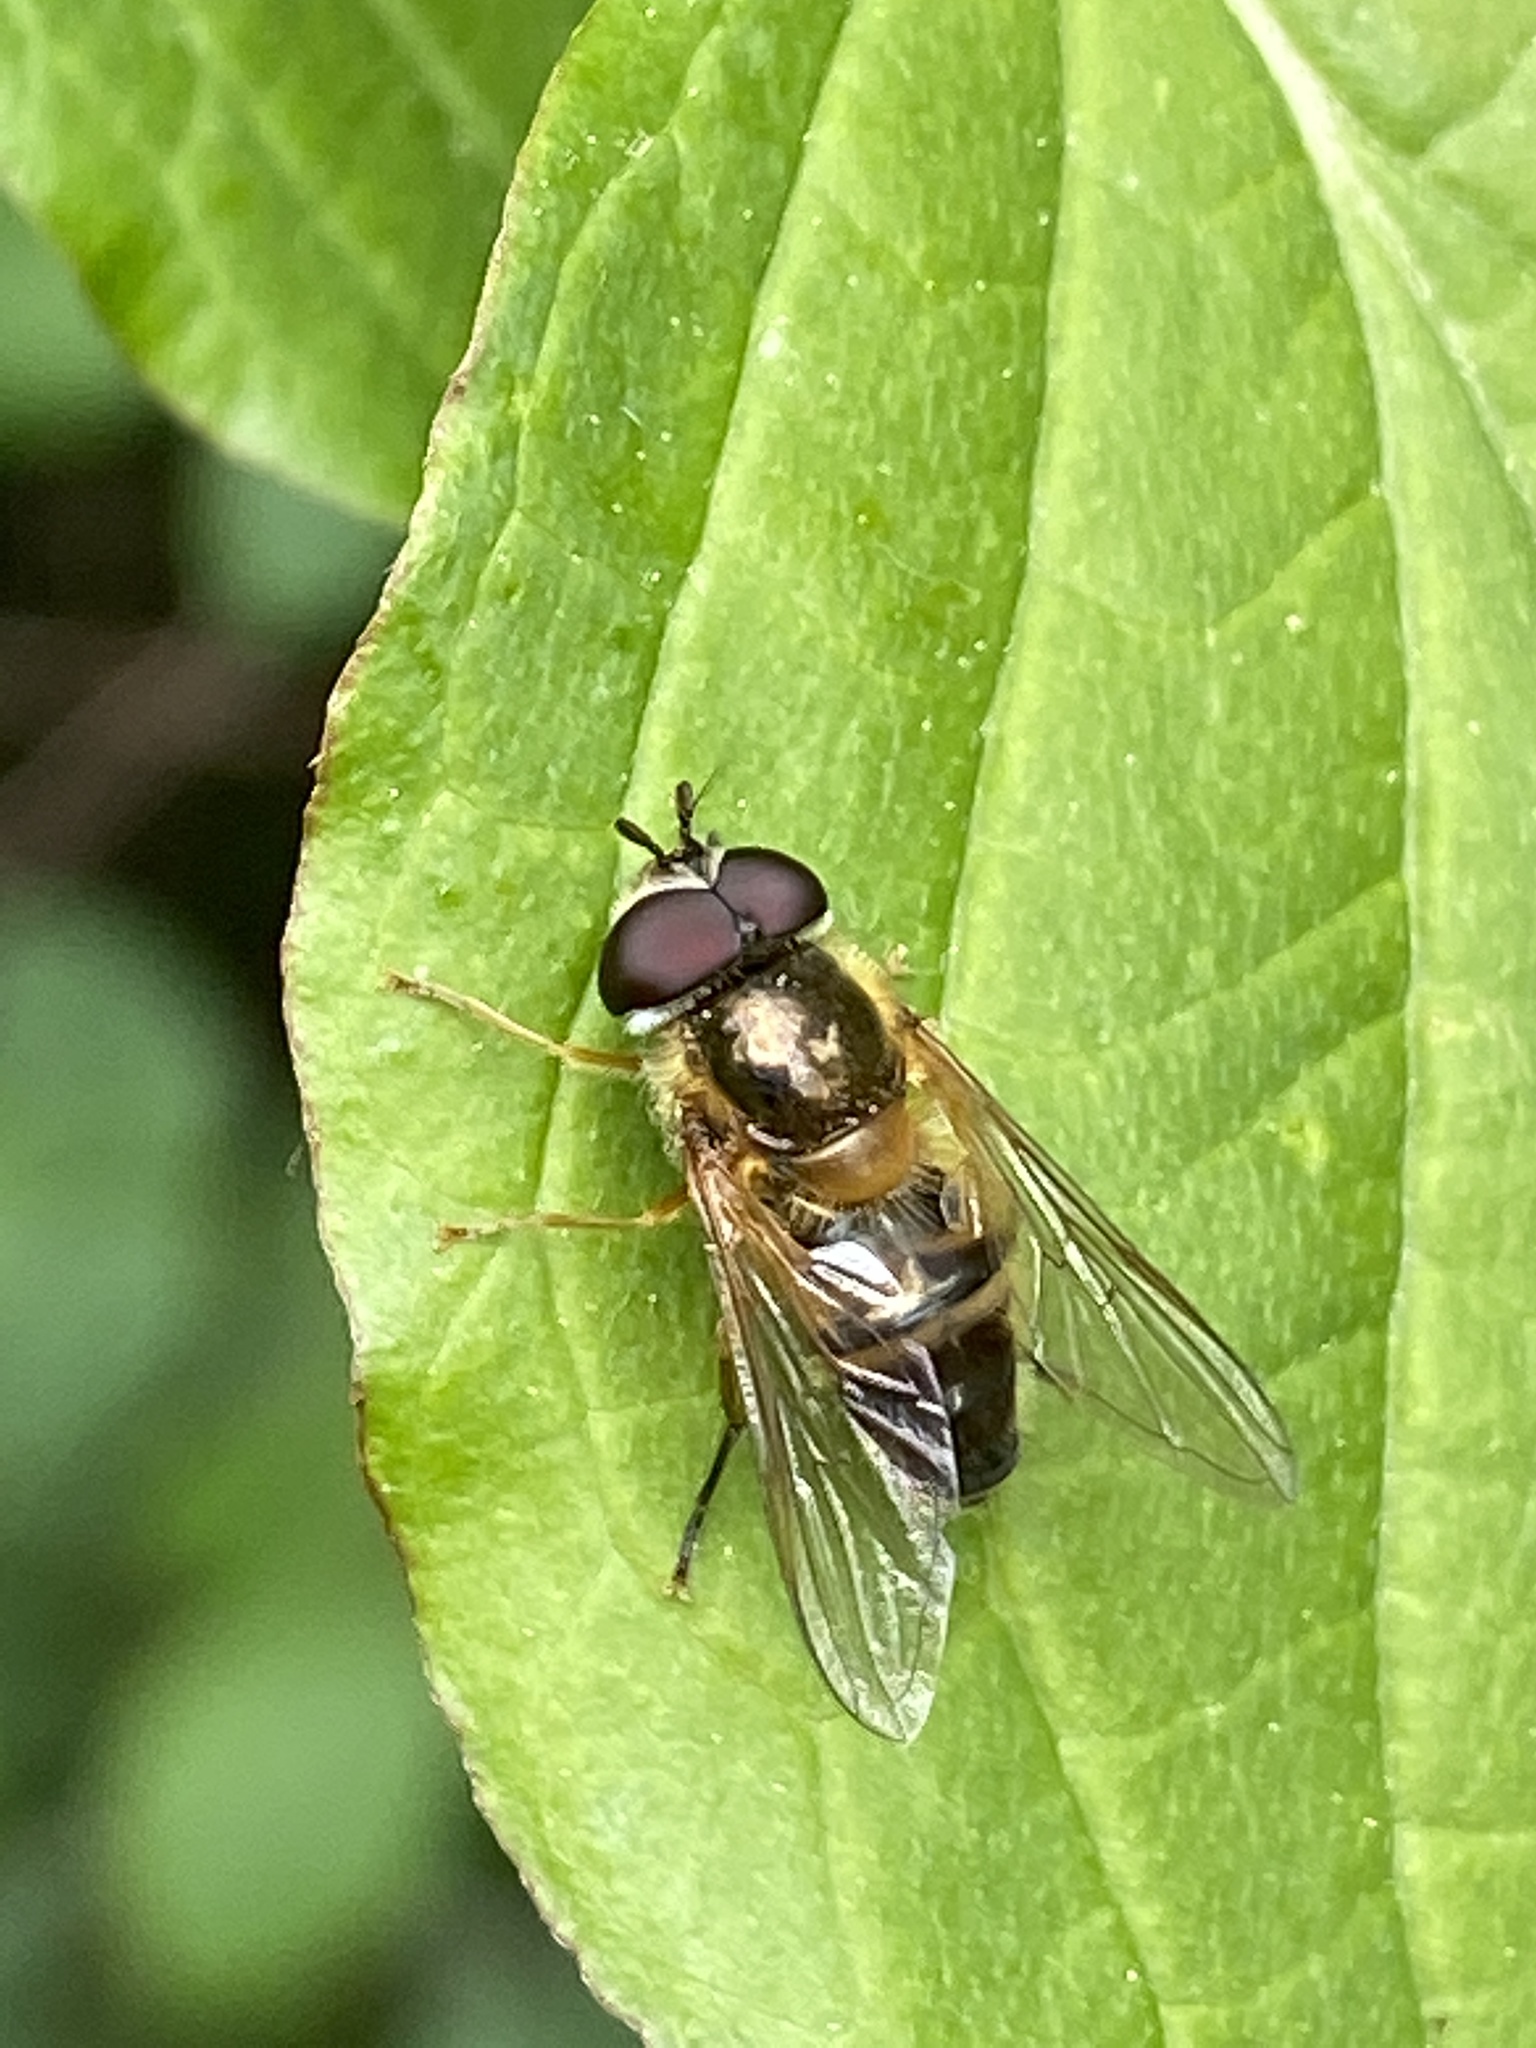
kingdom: Animalia
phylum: Arthropoda
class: Insecta
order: Diptera
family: Syrphidae
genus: Epistrophe
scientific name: Epistrophe eligans
